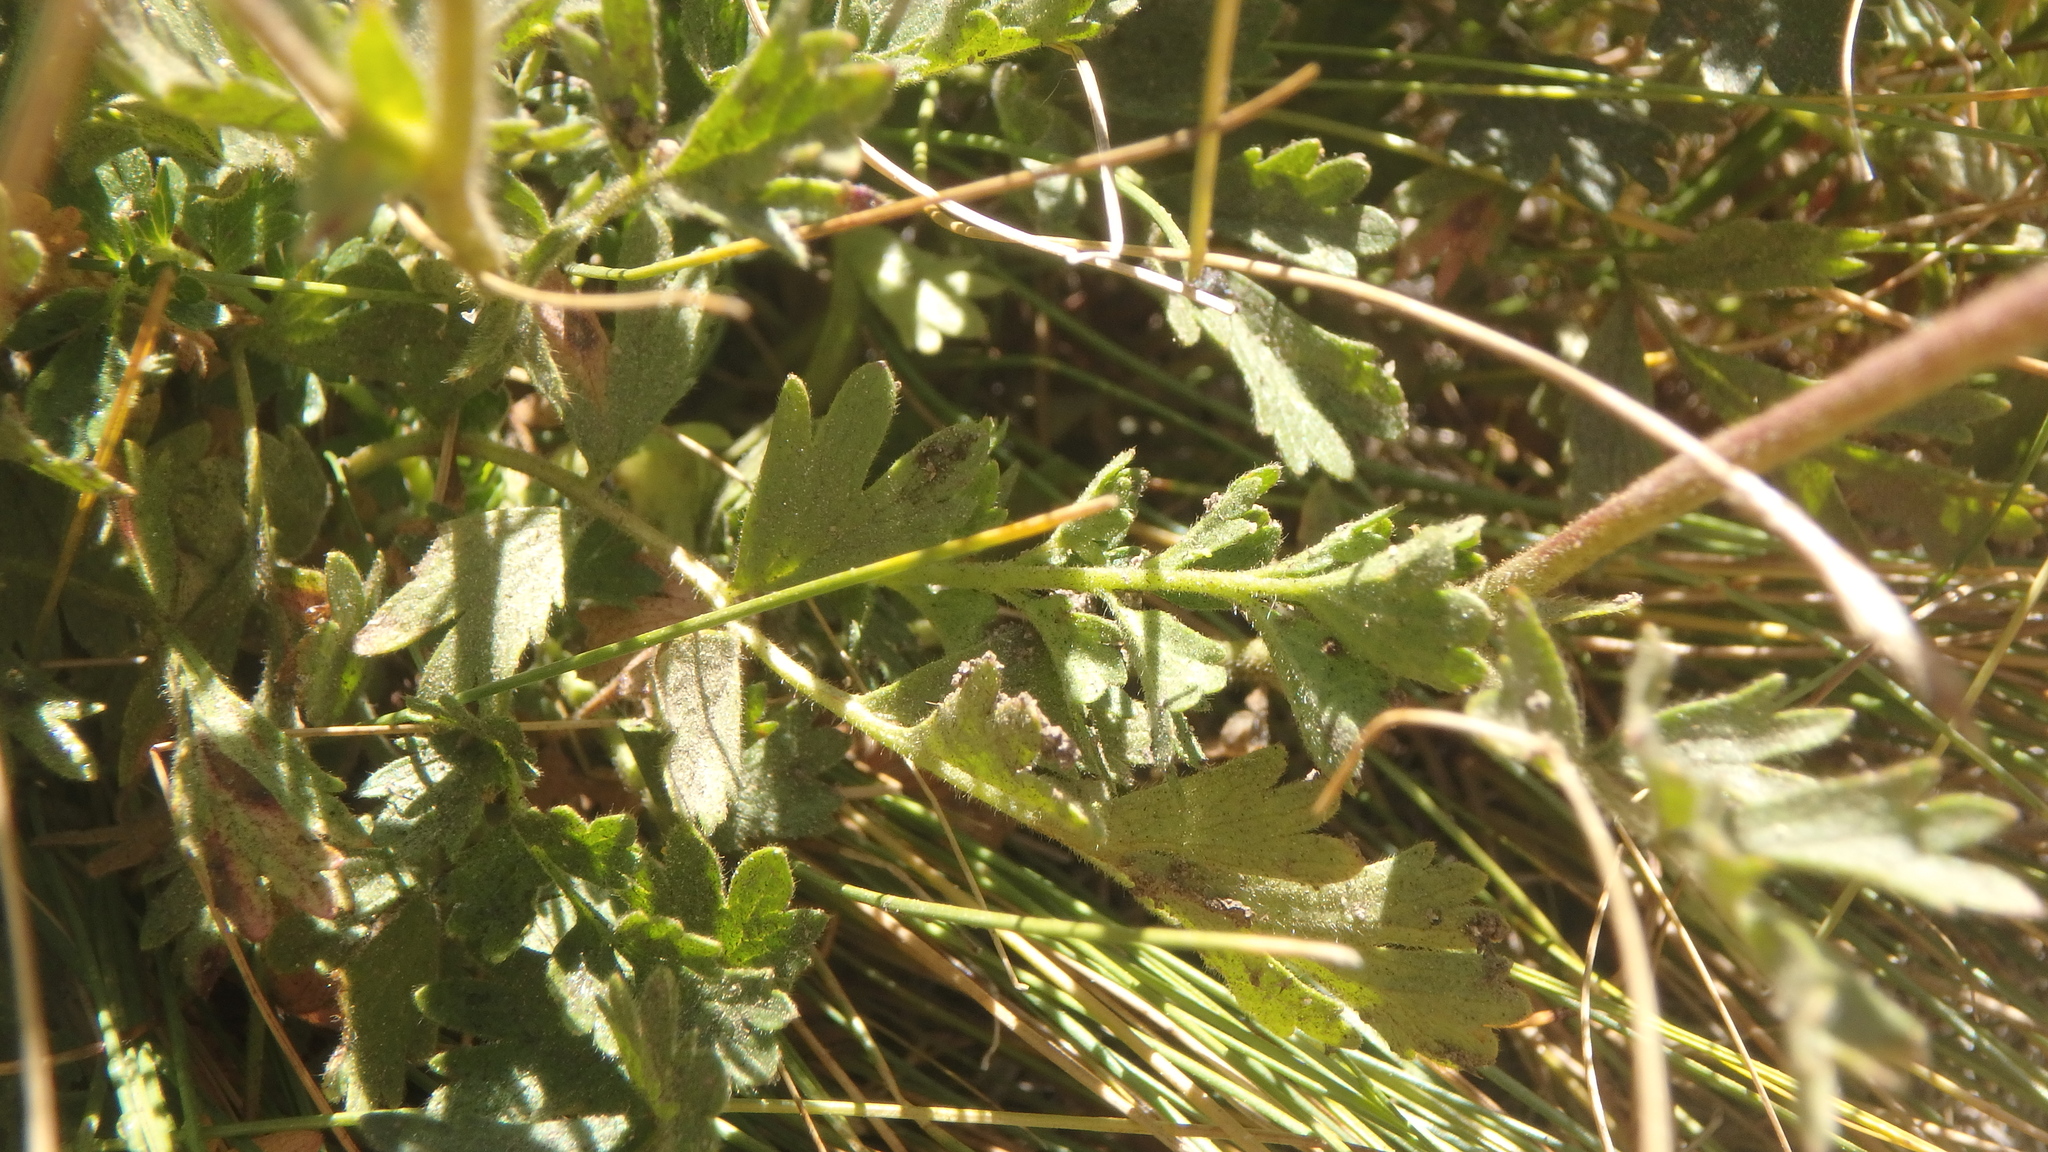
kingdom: Plantae
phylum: Tracheophyta
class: Magnoliopsida
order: Rosales
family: Rosaceae
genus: Potentilla
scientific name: Potentilla douglasii
